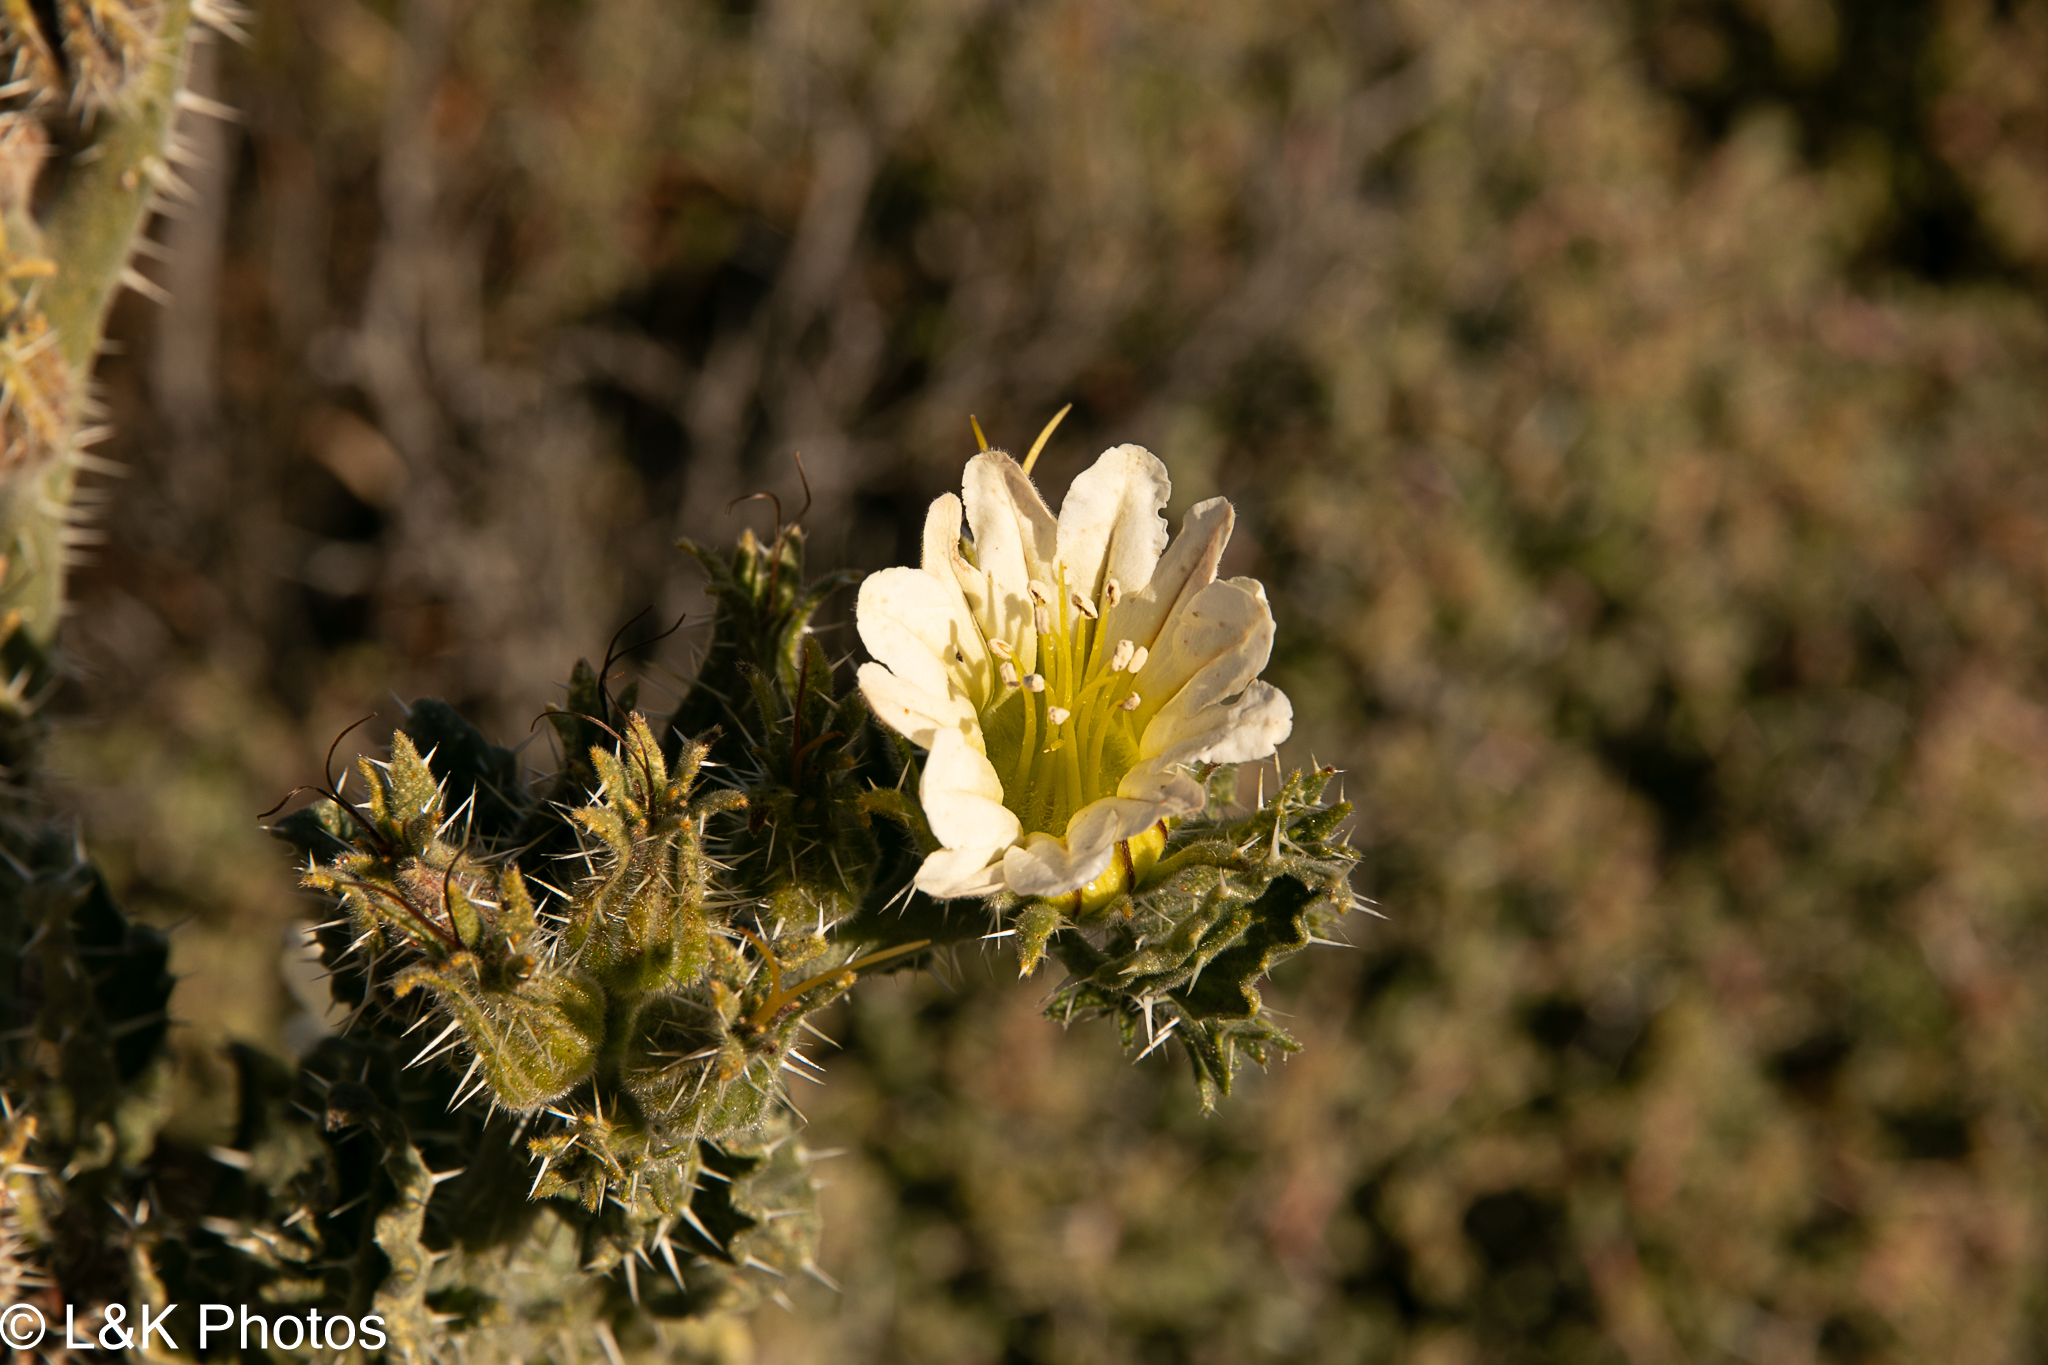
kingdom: Plantae
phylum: Tracheophyta
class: Magnoliopsida
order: Boraginales
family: Boraginaceae
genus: Codon
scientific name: Codon royenii
